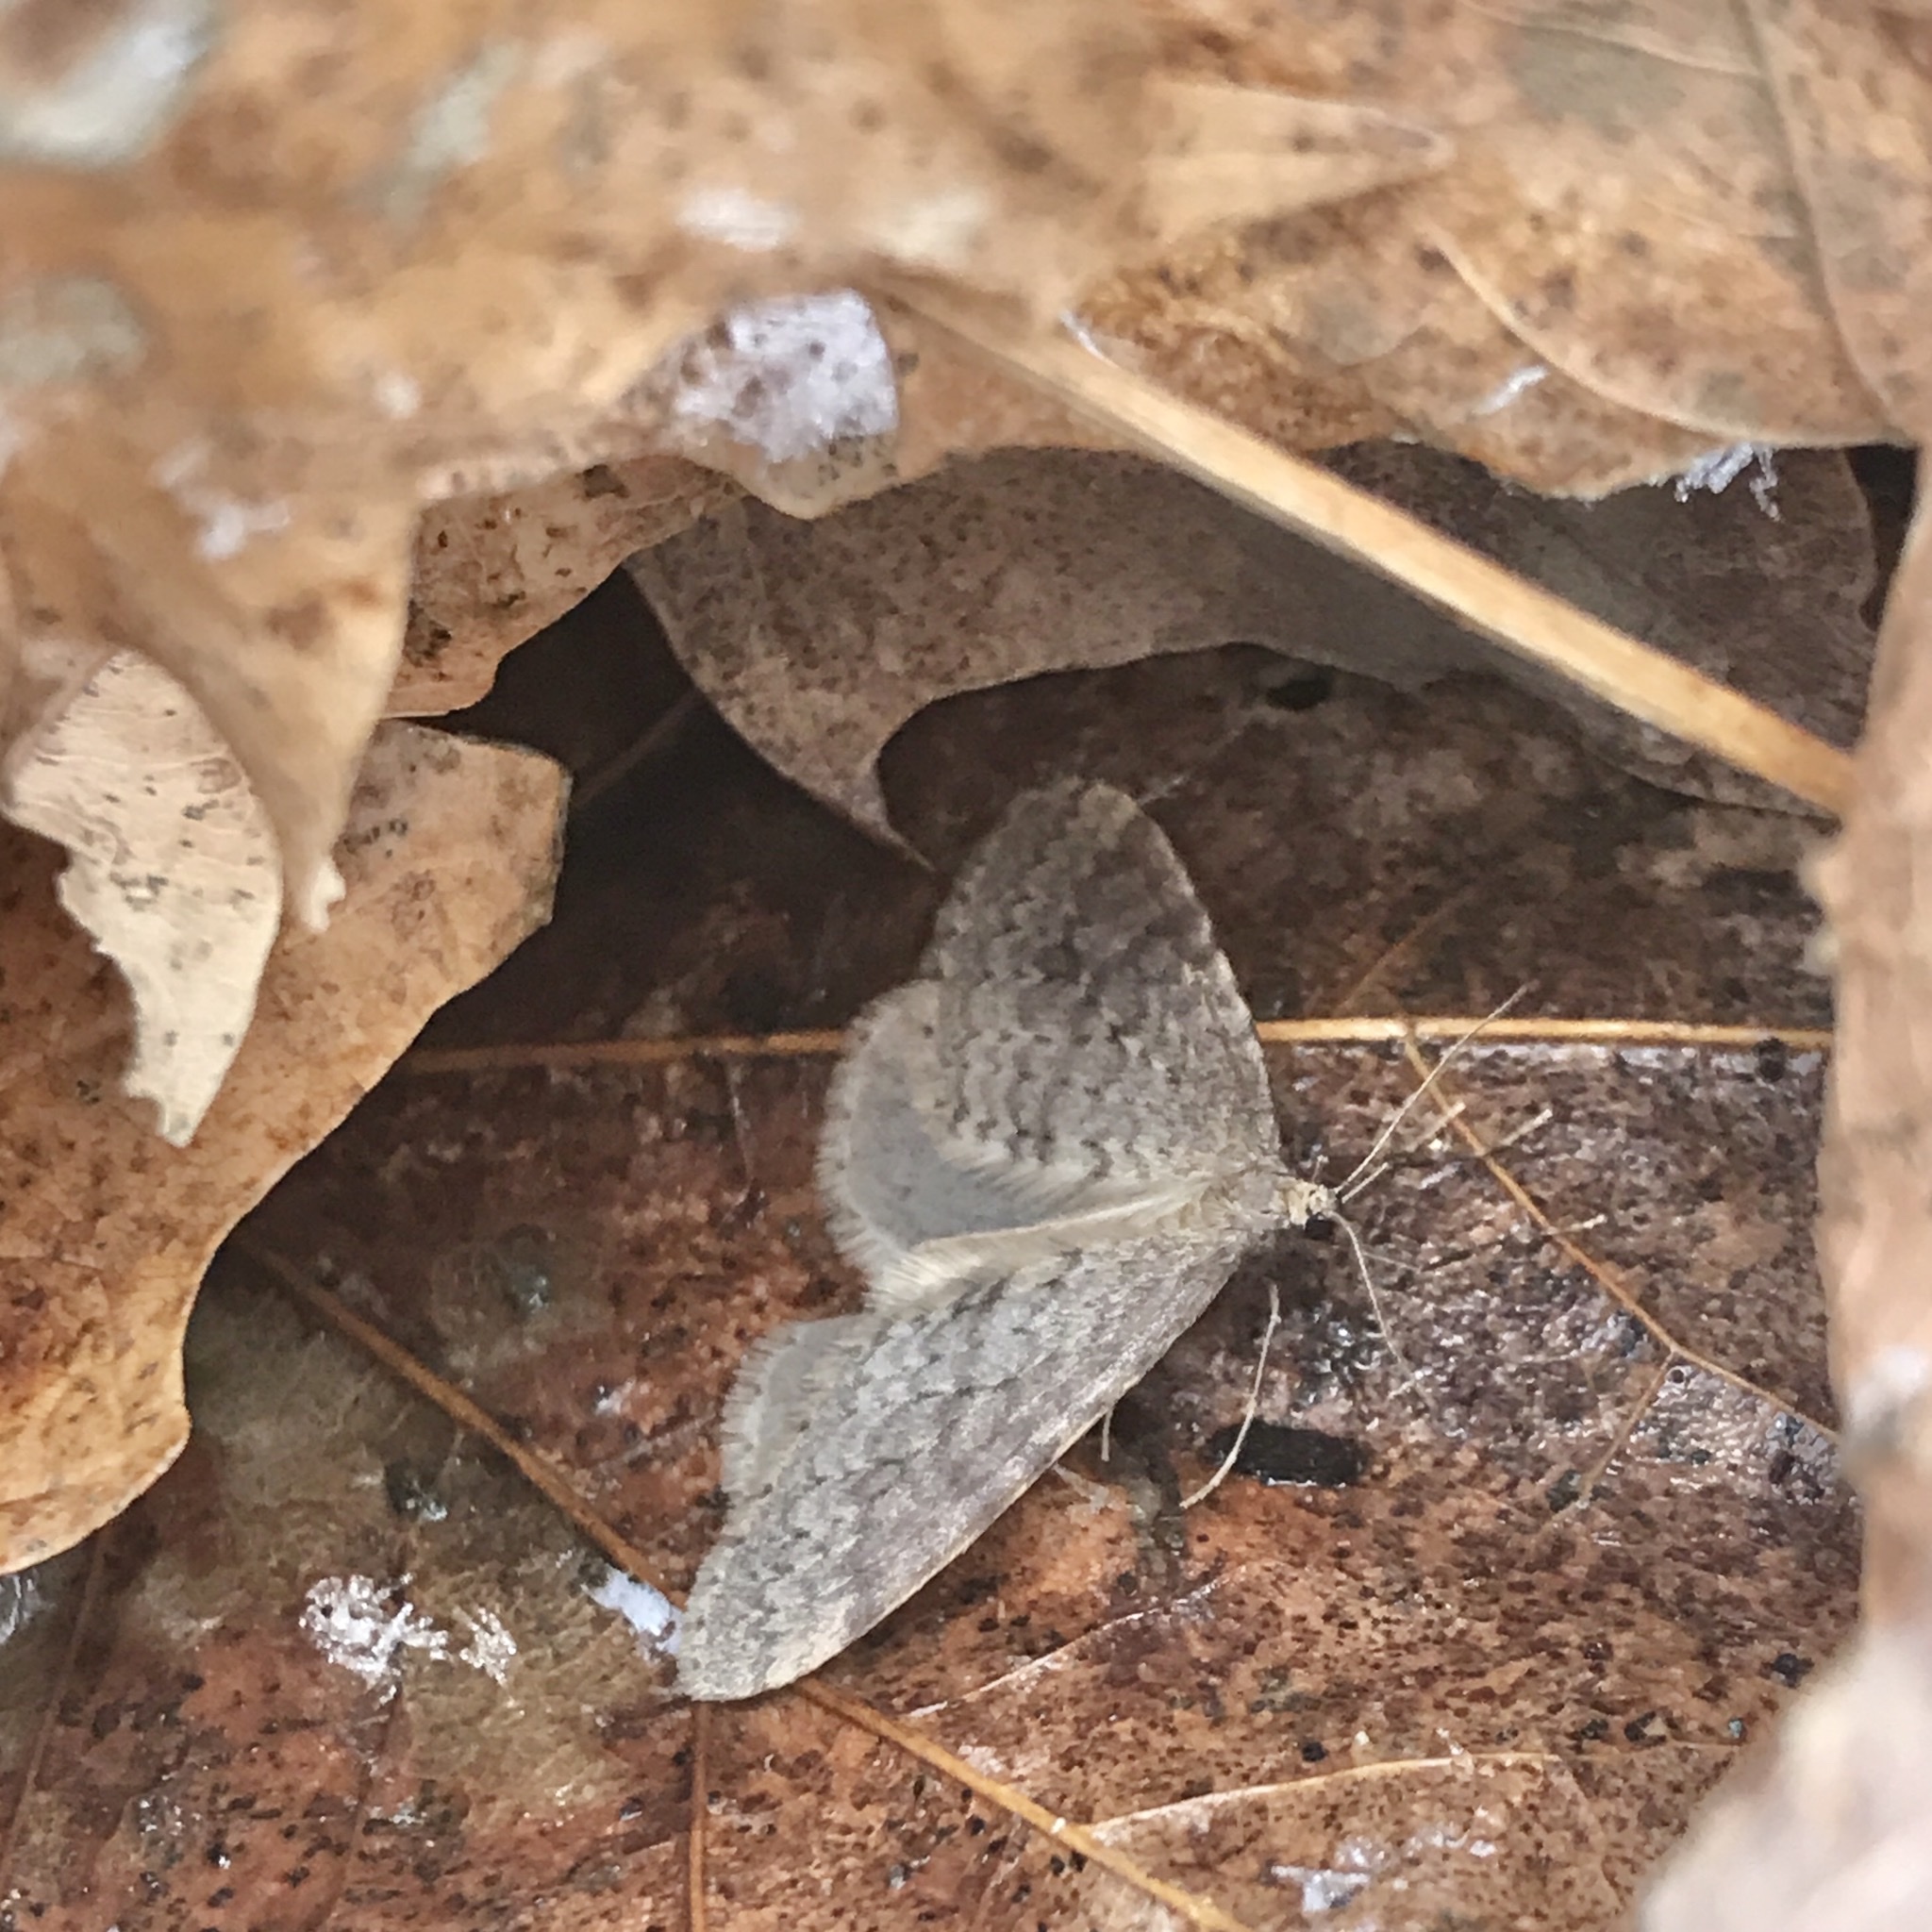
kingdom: Animalia
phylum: Arthropoda
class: Insecta
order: Lepidoptera
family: Geometridae
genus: Operophtera
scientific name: Operophtera bruceata
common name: Bruce spanworm
